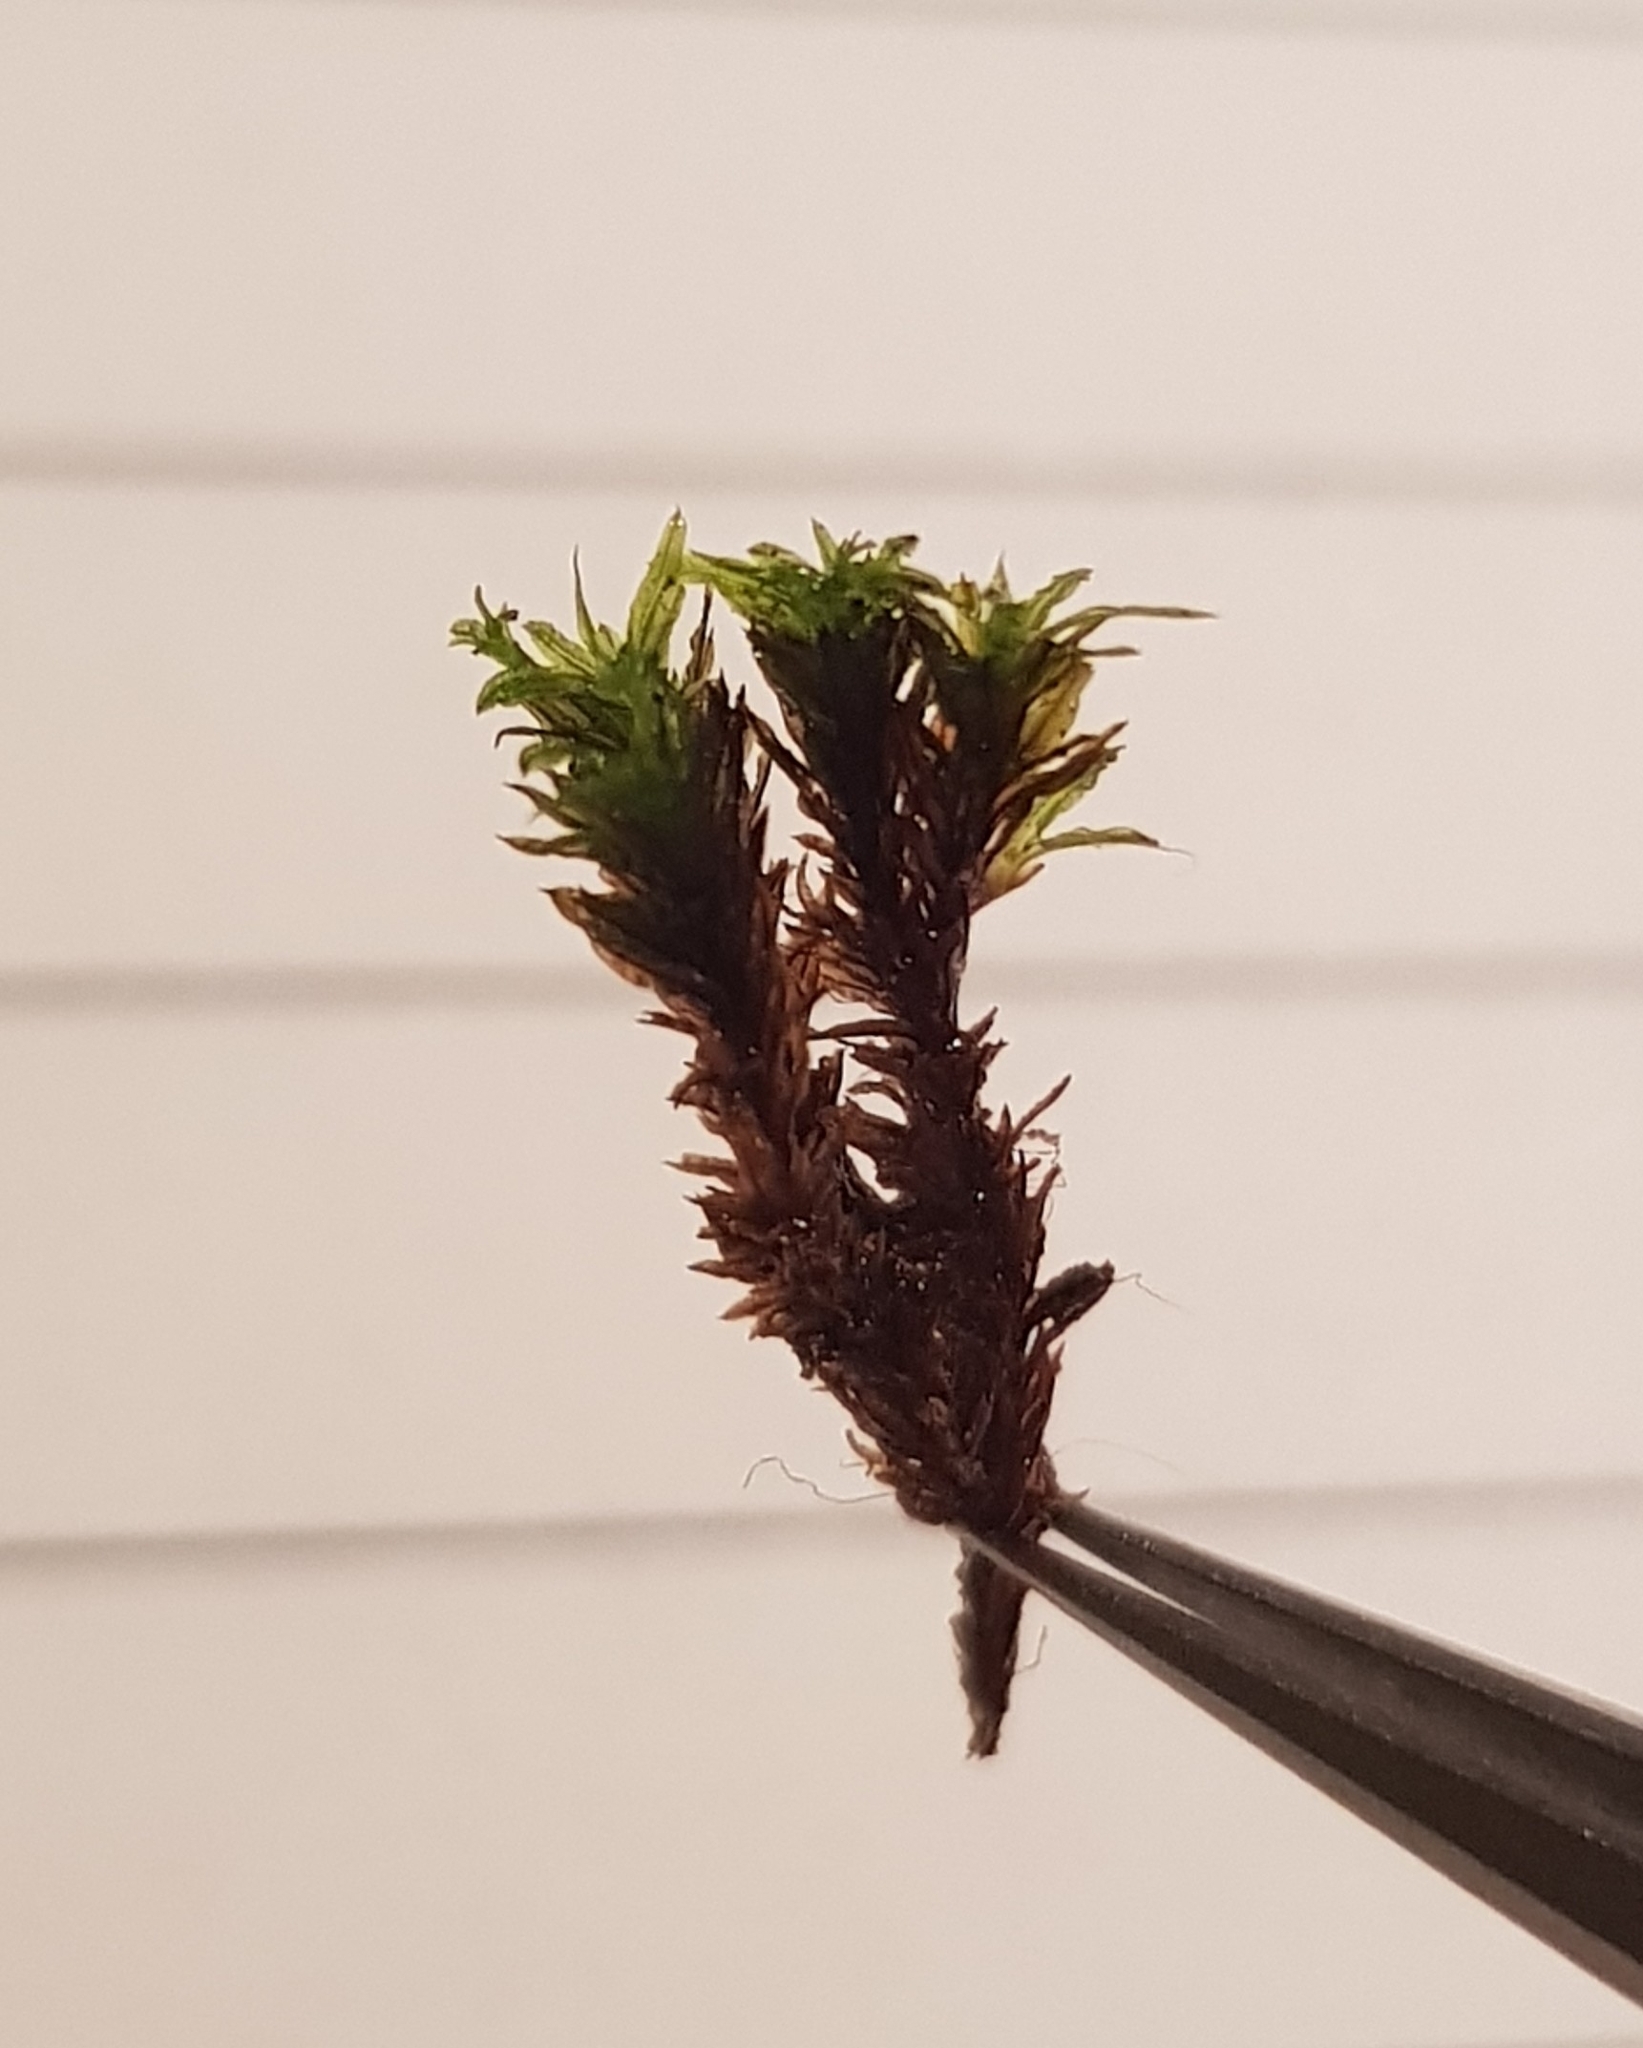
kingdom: Plantae
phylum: Bryophyta
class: Bryopsida
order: Pottiales
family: Pottiaceae
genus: Trichostomum
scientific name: Trichostomum brachydontium
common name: Variable crisp-moss
